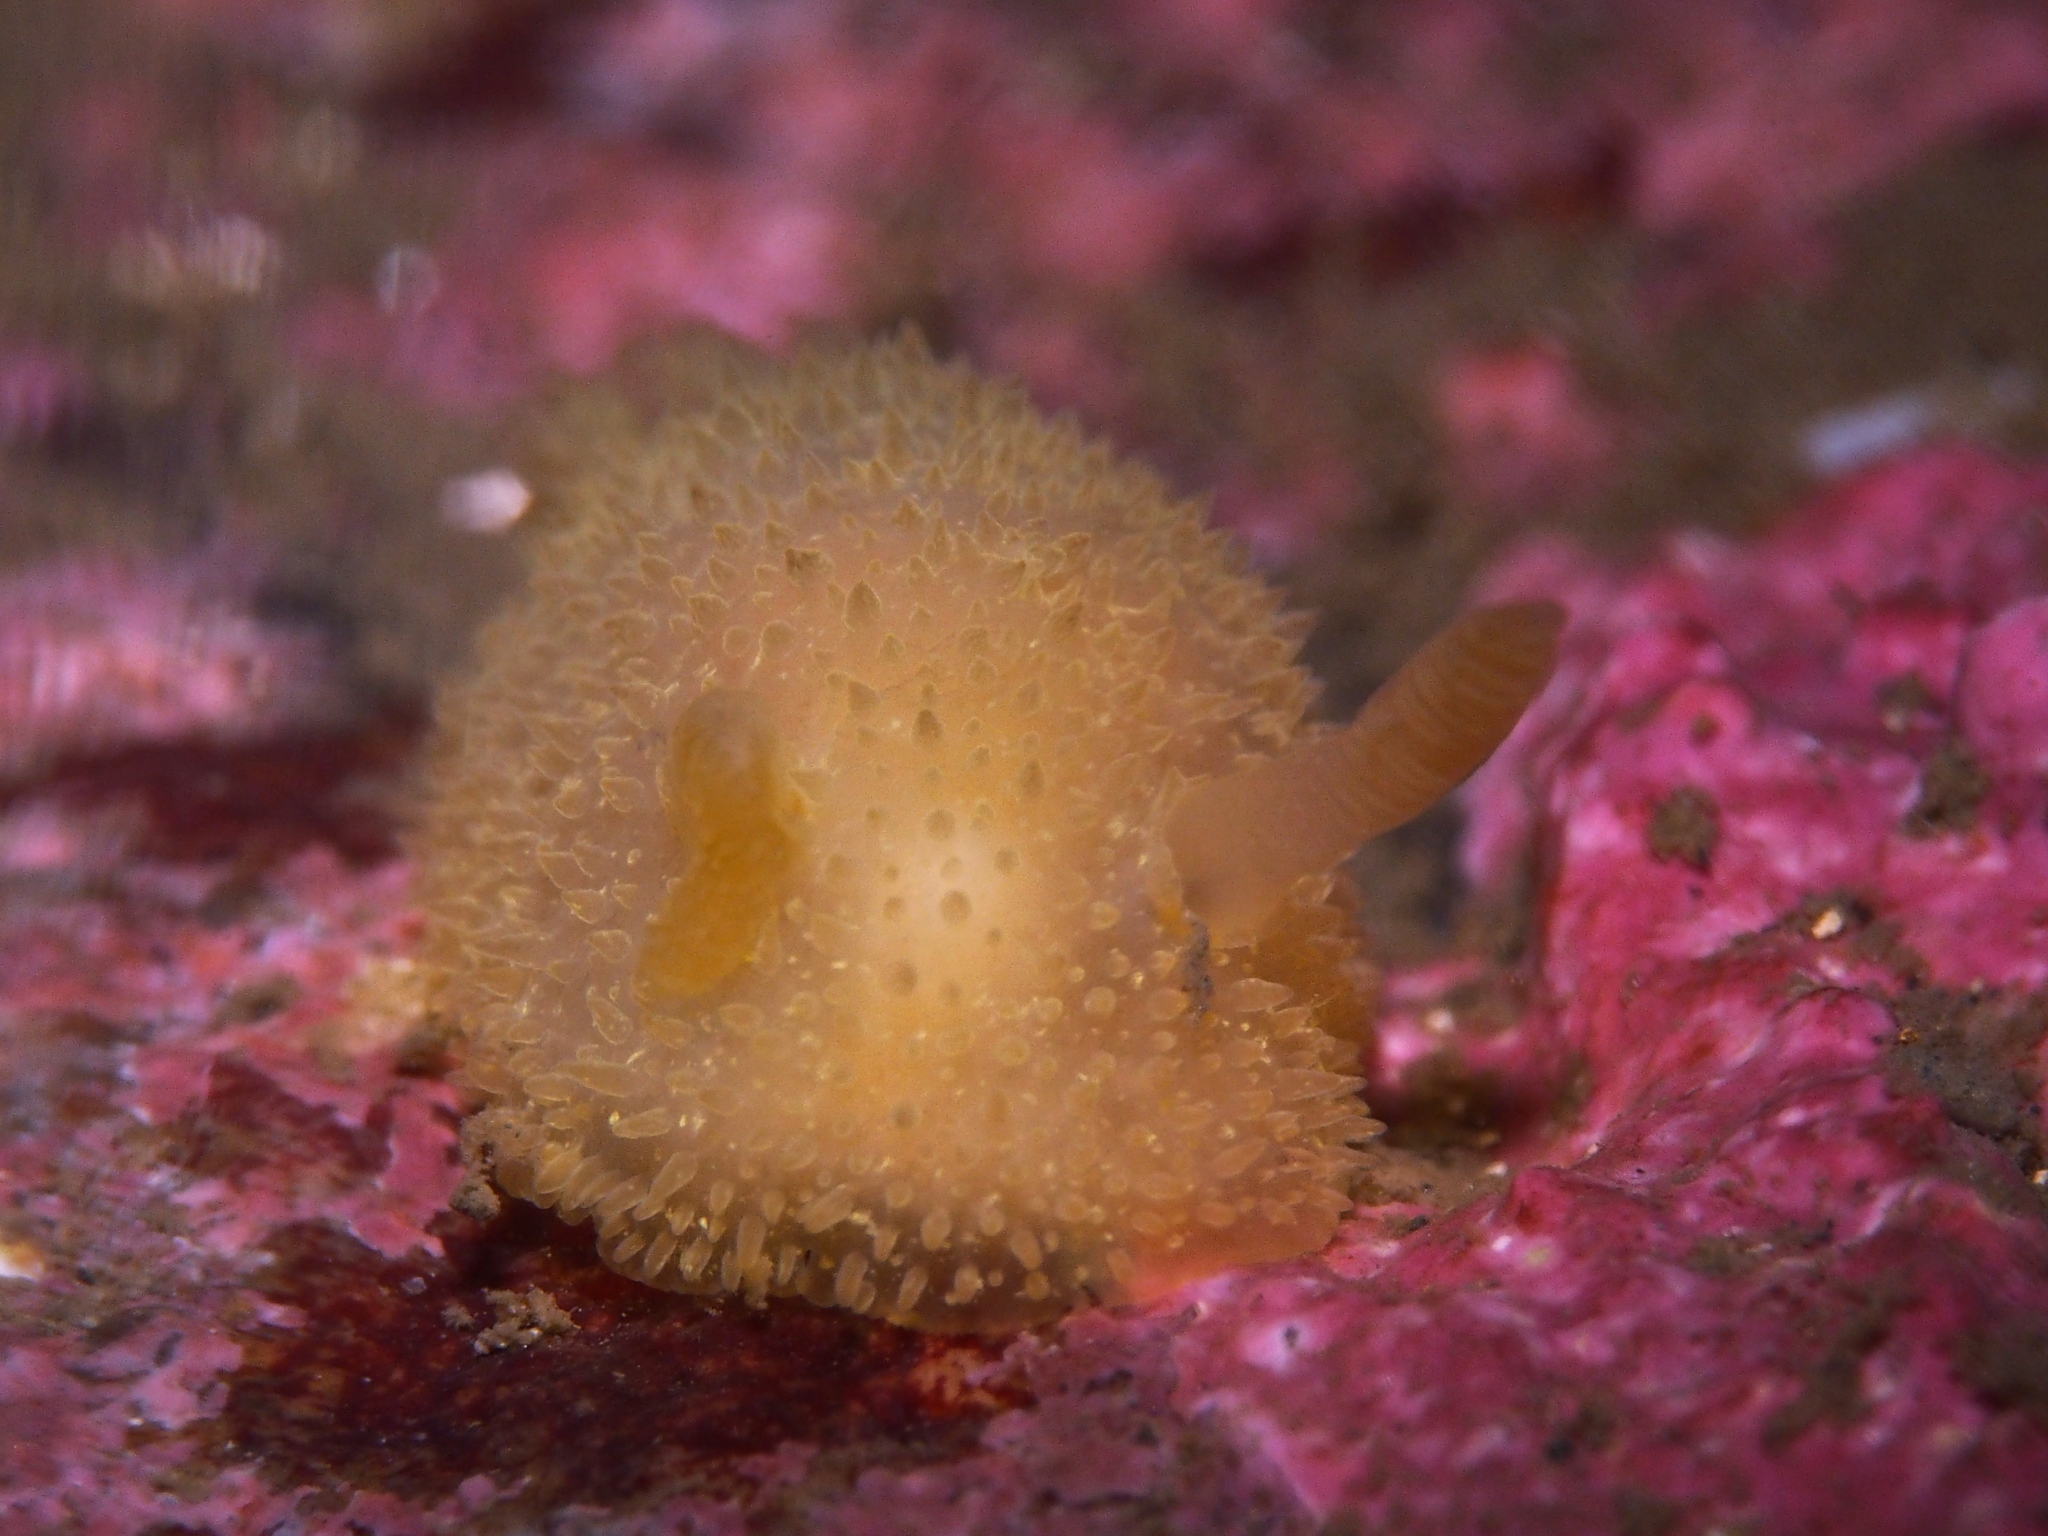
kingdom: Animalia
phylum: Mollusca
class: Gastropoda
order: Nudibranchia
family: Onchidorididae
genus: Acanthodoris
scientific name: Acanthodoris pilosa
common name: Hairy spiny doris
